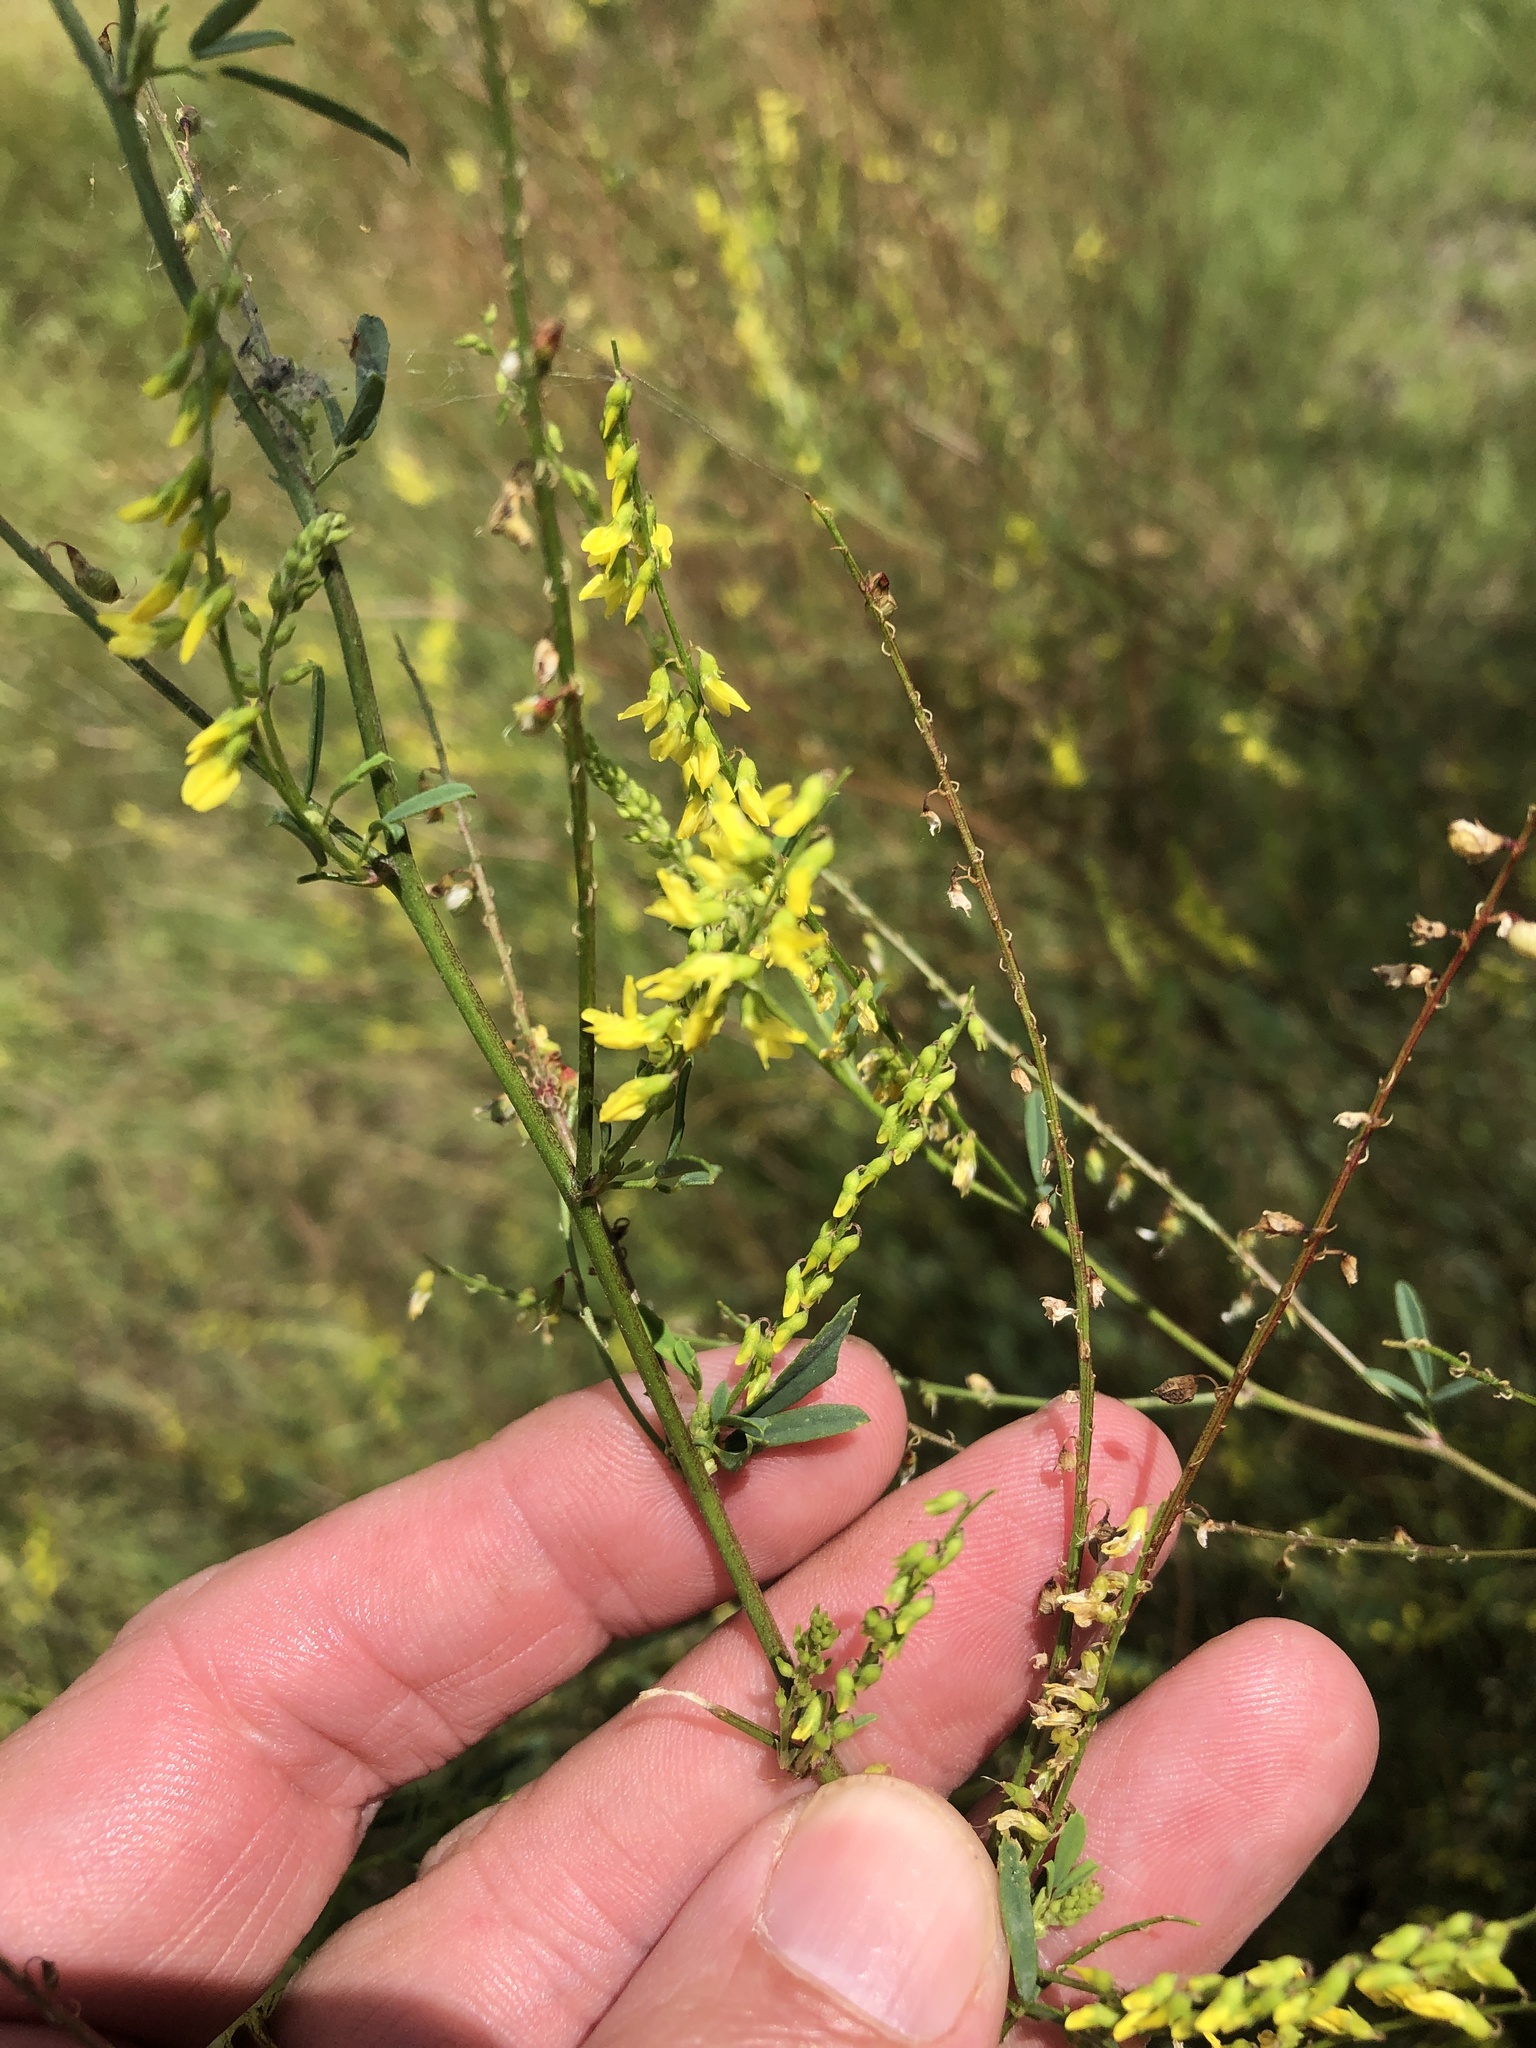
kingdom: Plantae
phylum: Tracheophyta
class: Magnoliopsida
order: Fabales
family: Fabaceae
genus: Melilotus
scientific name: Melilotus officinalis
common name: Sweetclover
